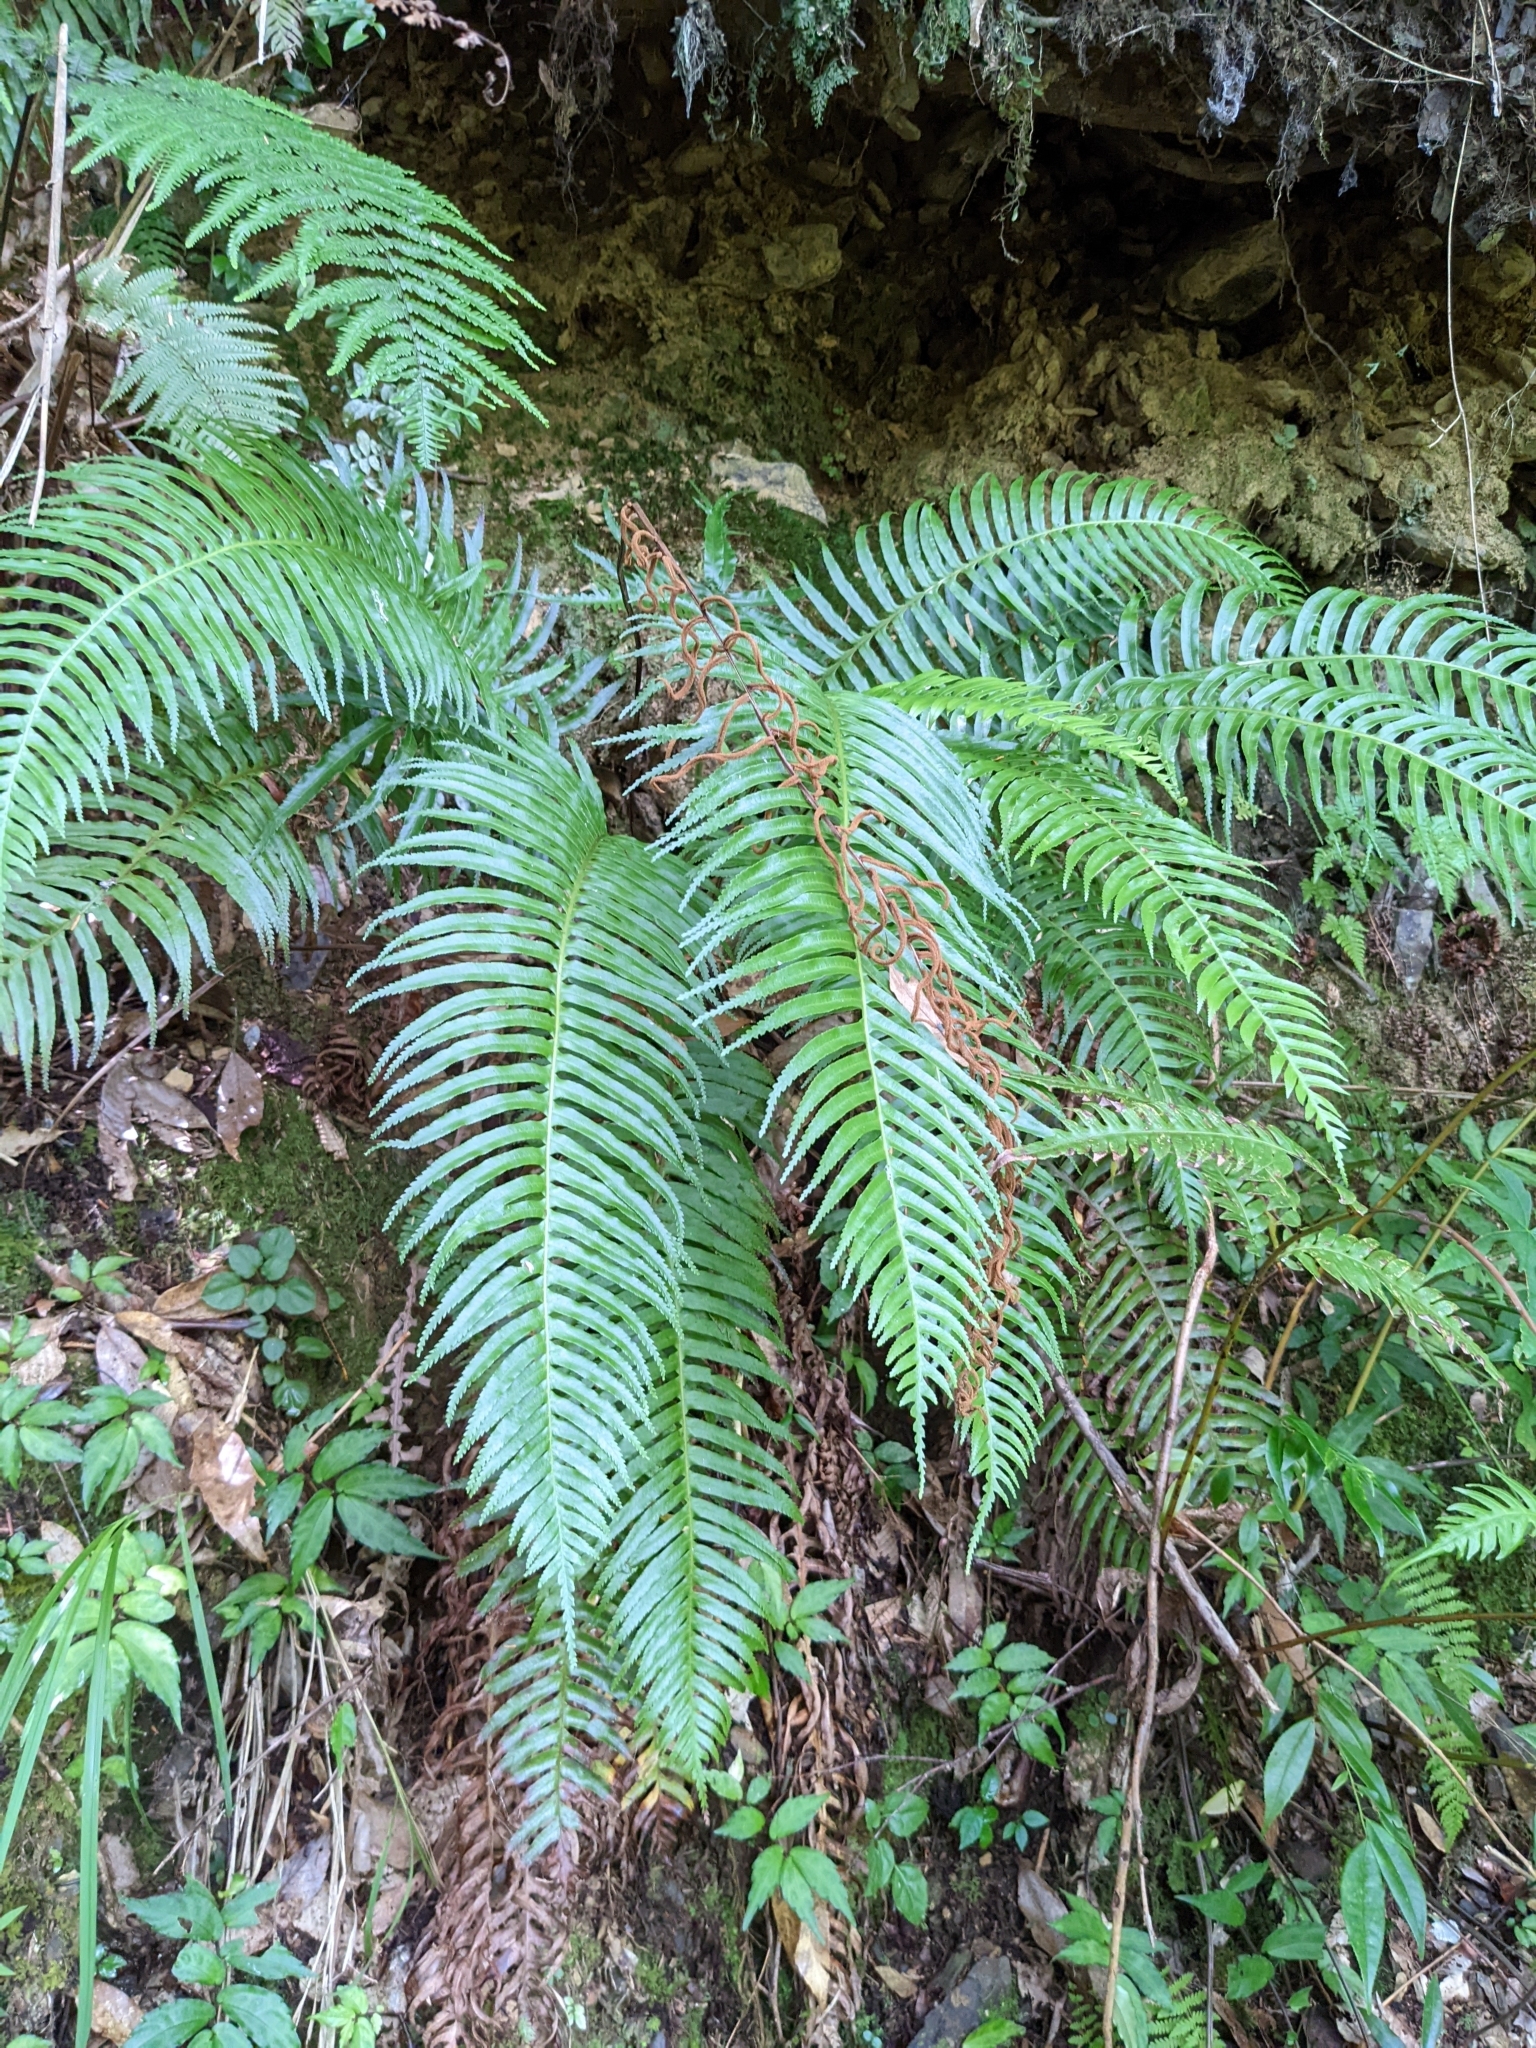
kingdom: Plantae
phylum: Tracheophyta
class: Polypodiopsida
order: Cyatheales
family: Plagiogyriaceae
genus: Plagiogyria
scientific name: Plagiogyria falcata
